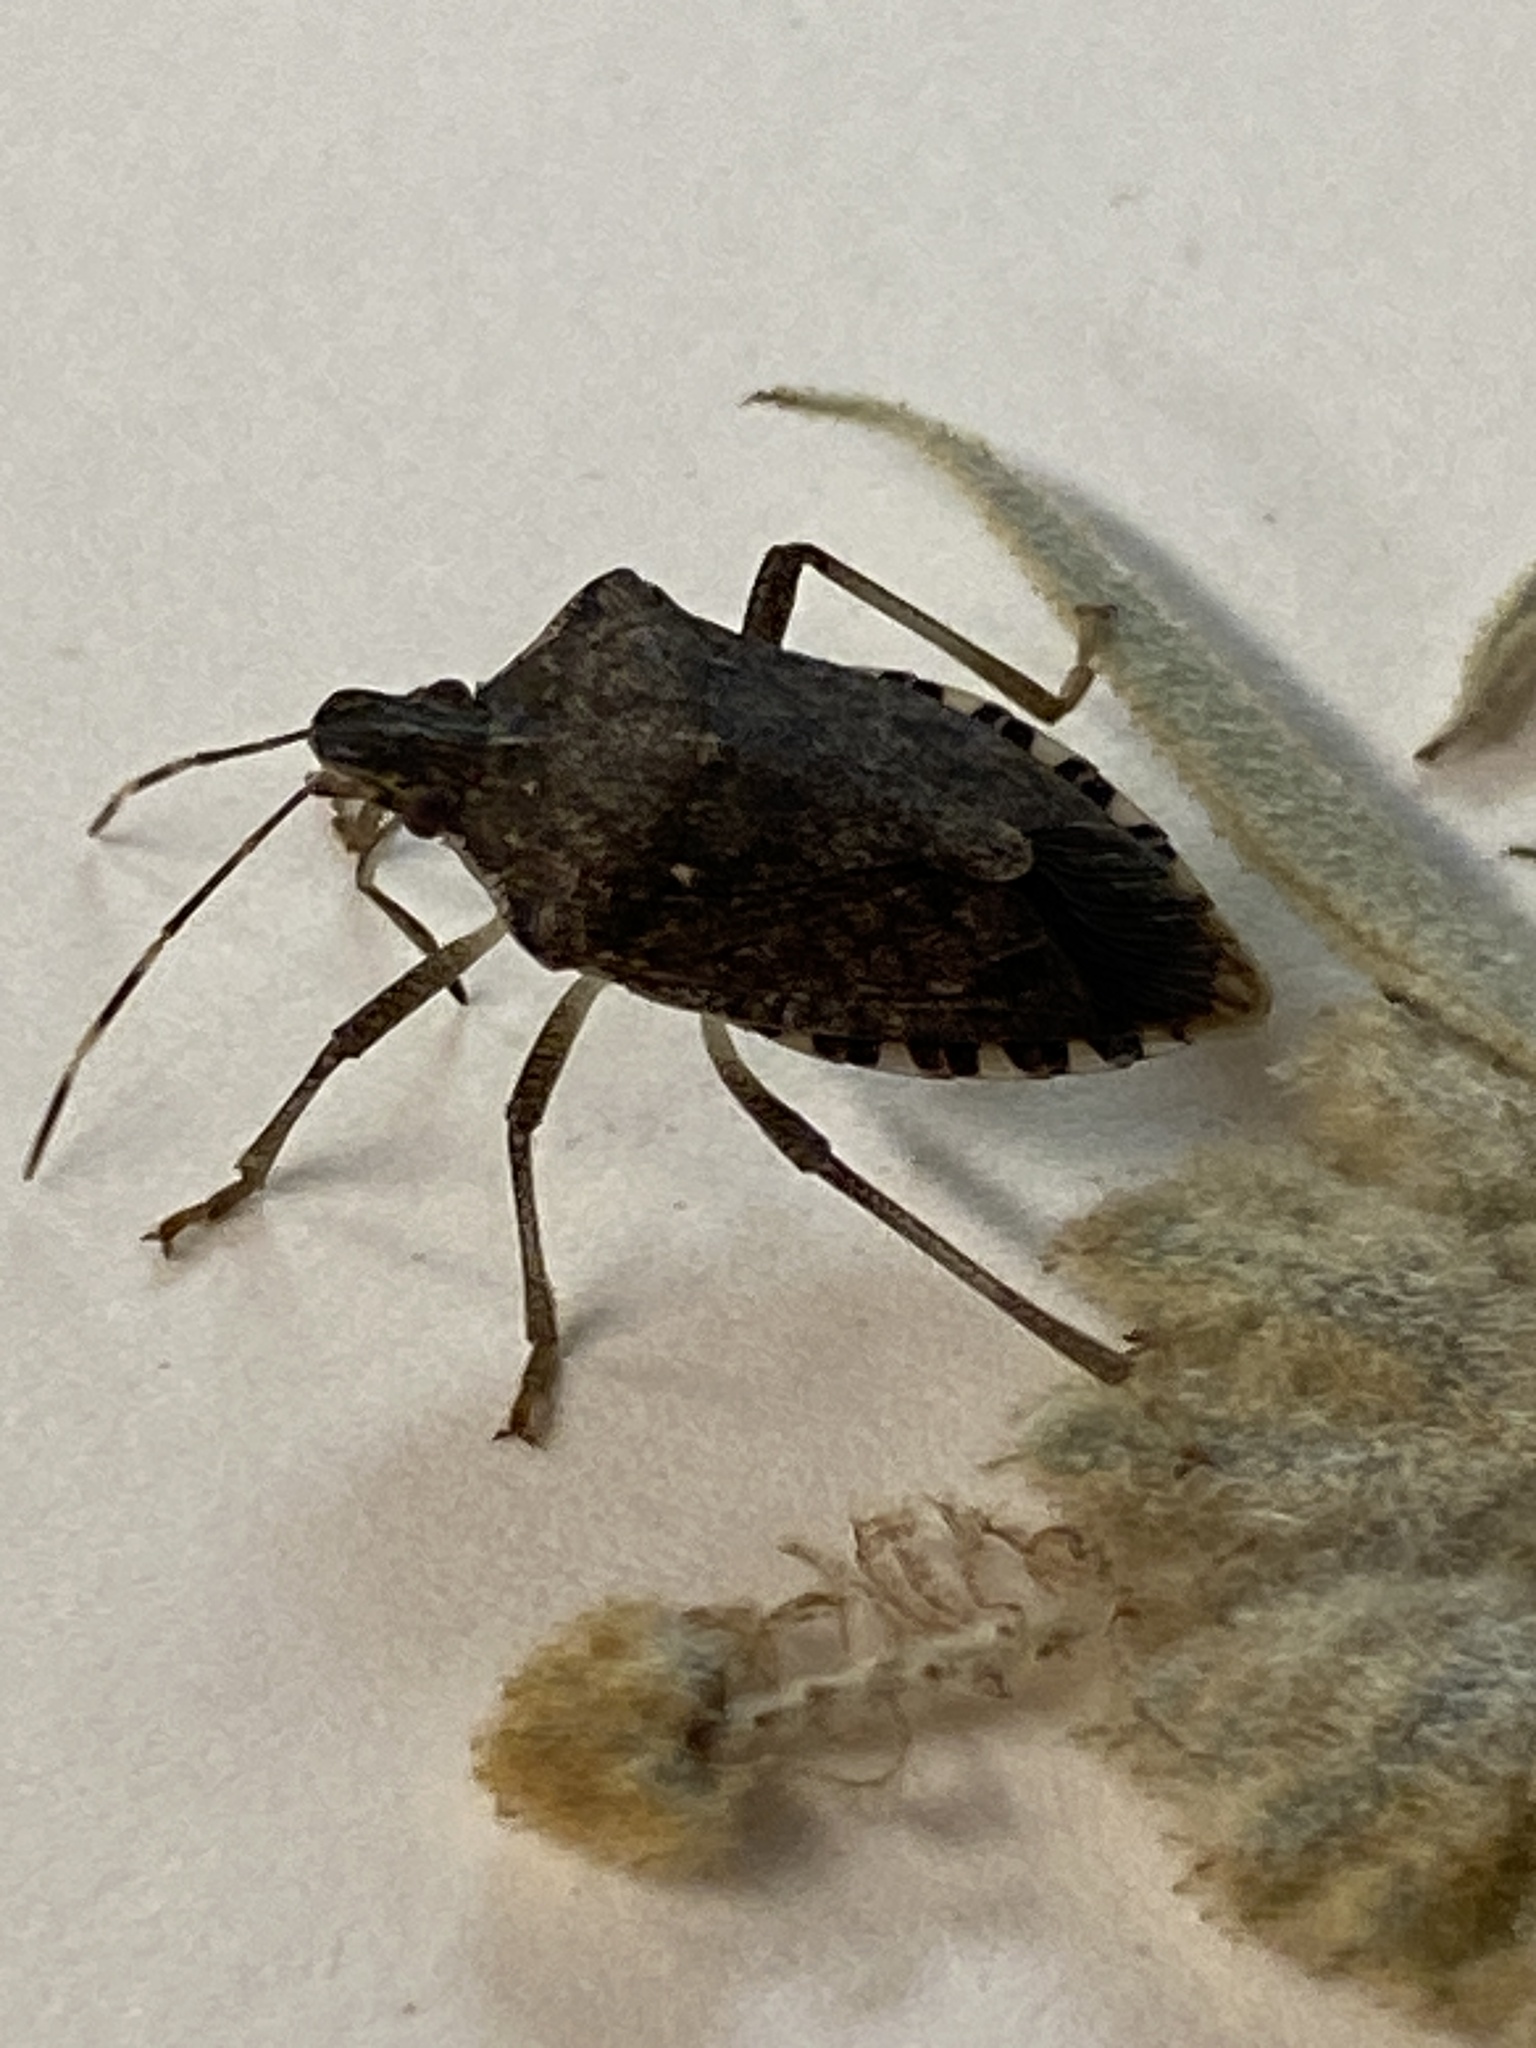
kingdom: Animalia
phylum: Arthropoda
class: Insecta
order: Hemiptera
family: Pentatomidae
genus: Halyomorpha
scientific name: Halyomorpha halys
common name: Brown marmorated stink bug
